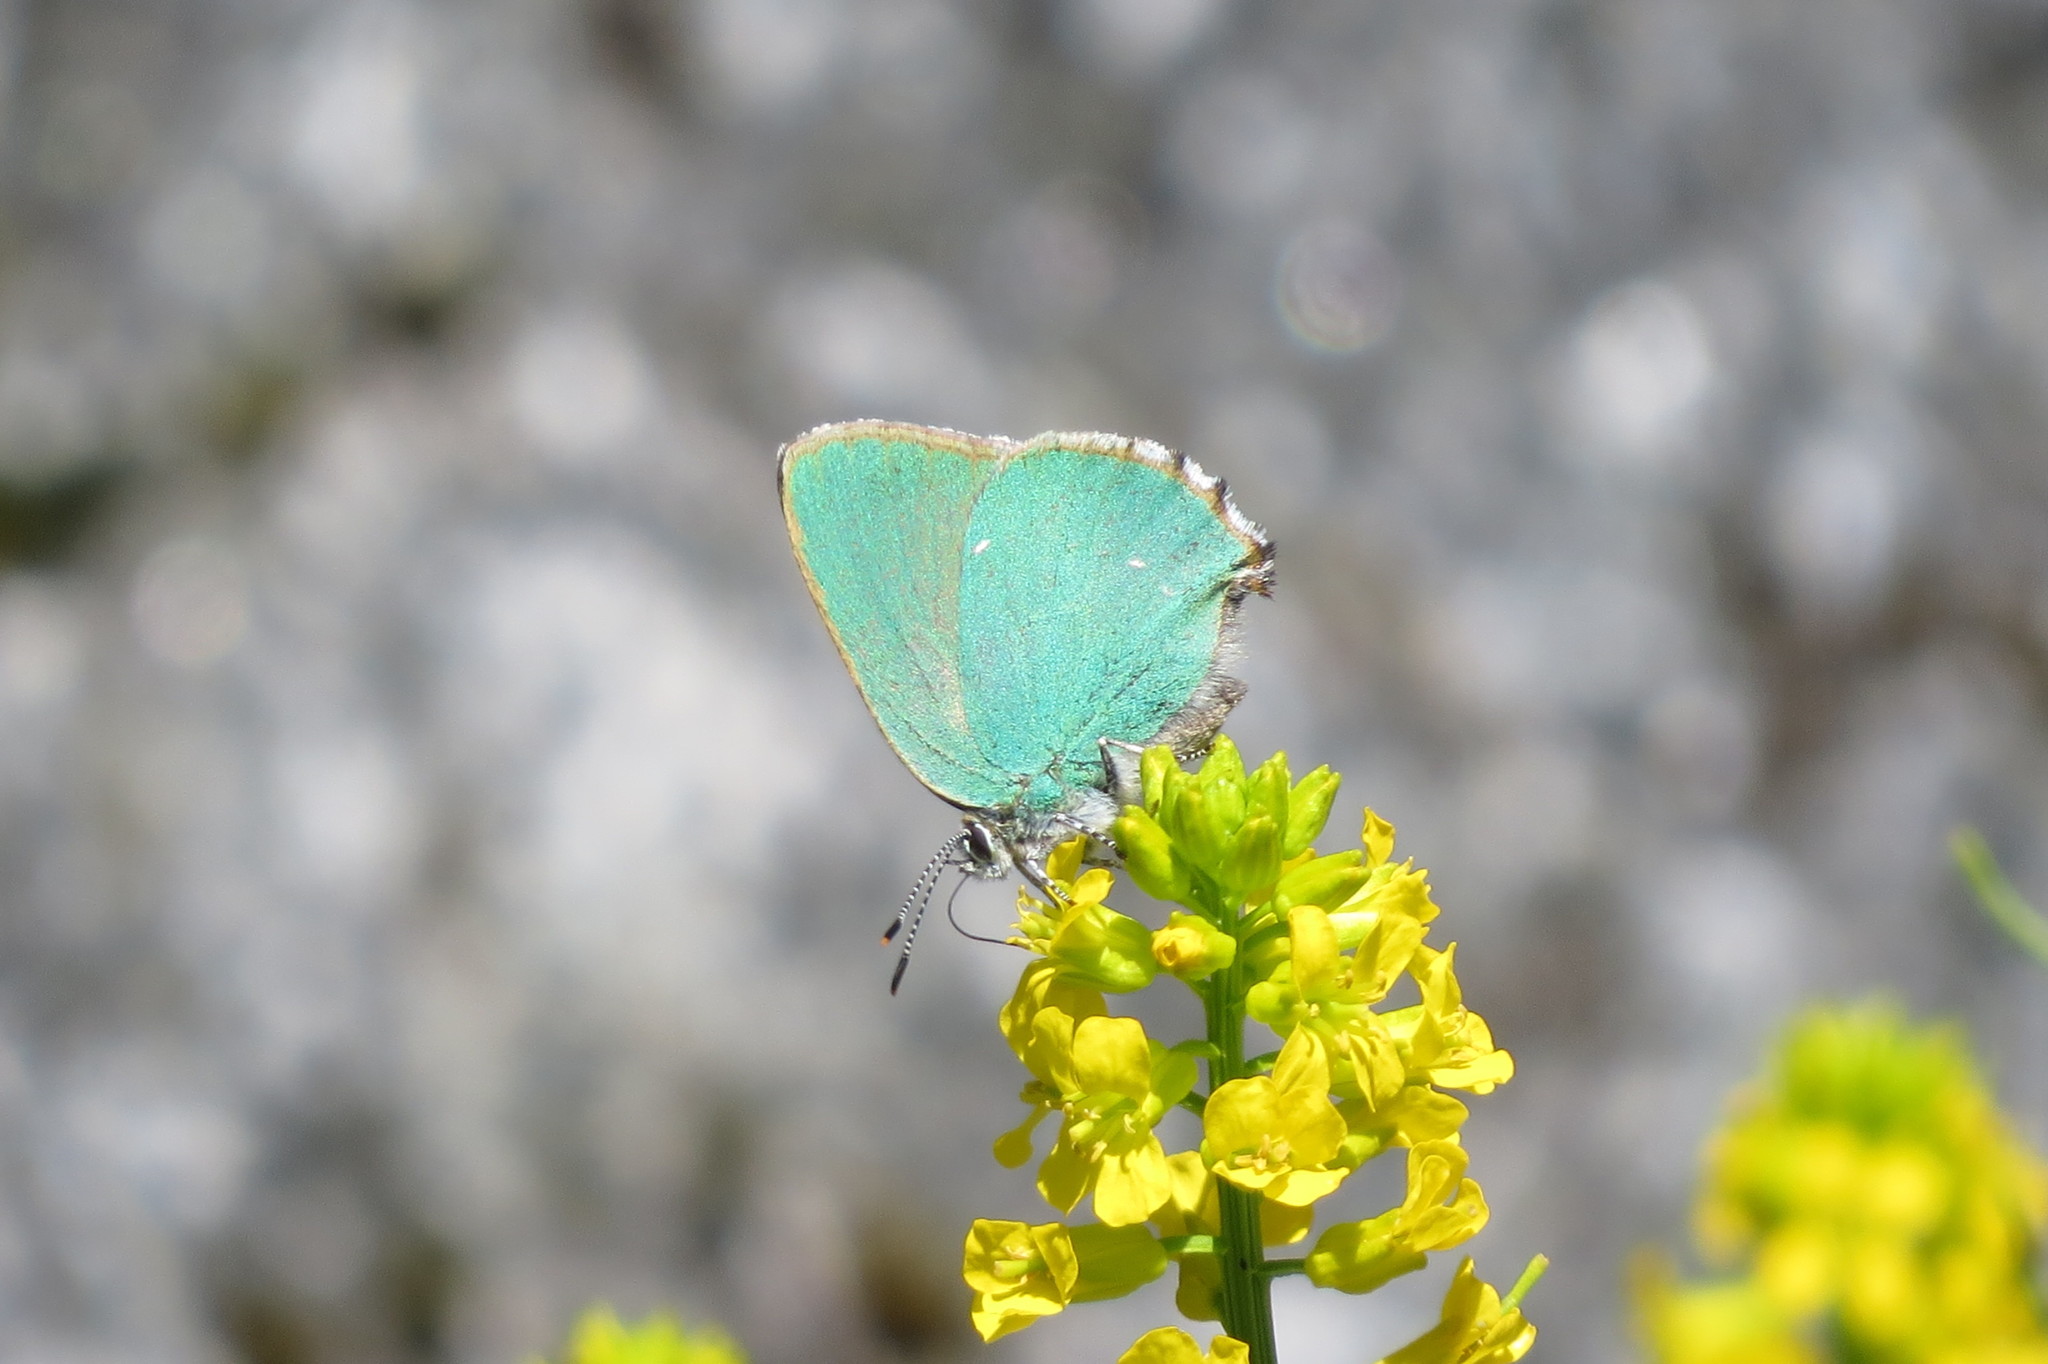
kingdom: Animalia
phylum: Arthropoda
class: Insecta
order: Lepidoptera
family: Lycaenidae
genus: Callophrys
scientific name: Callophrys rubi
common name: Green hairstreak
